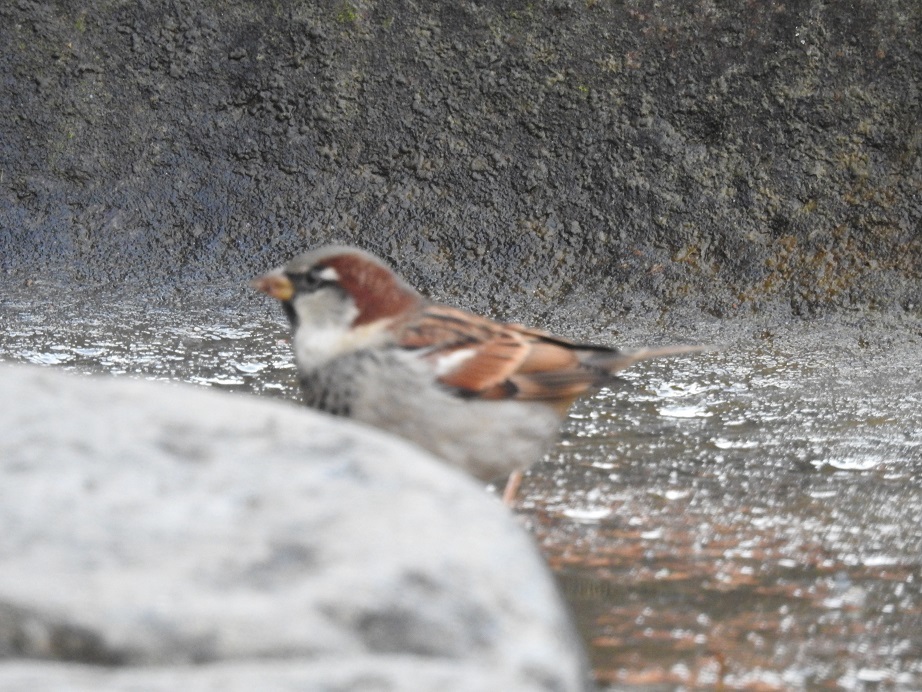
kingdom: Animalia
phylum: Chordata
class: Aves
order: Passeriformes
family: Passeridae
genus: Passer
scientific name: Passer domesticus
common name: House sparrow
